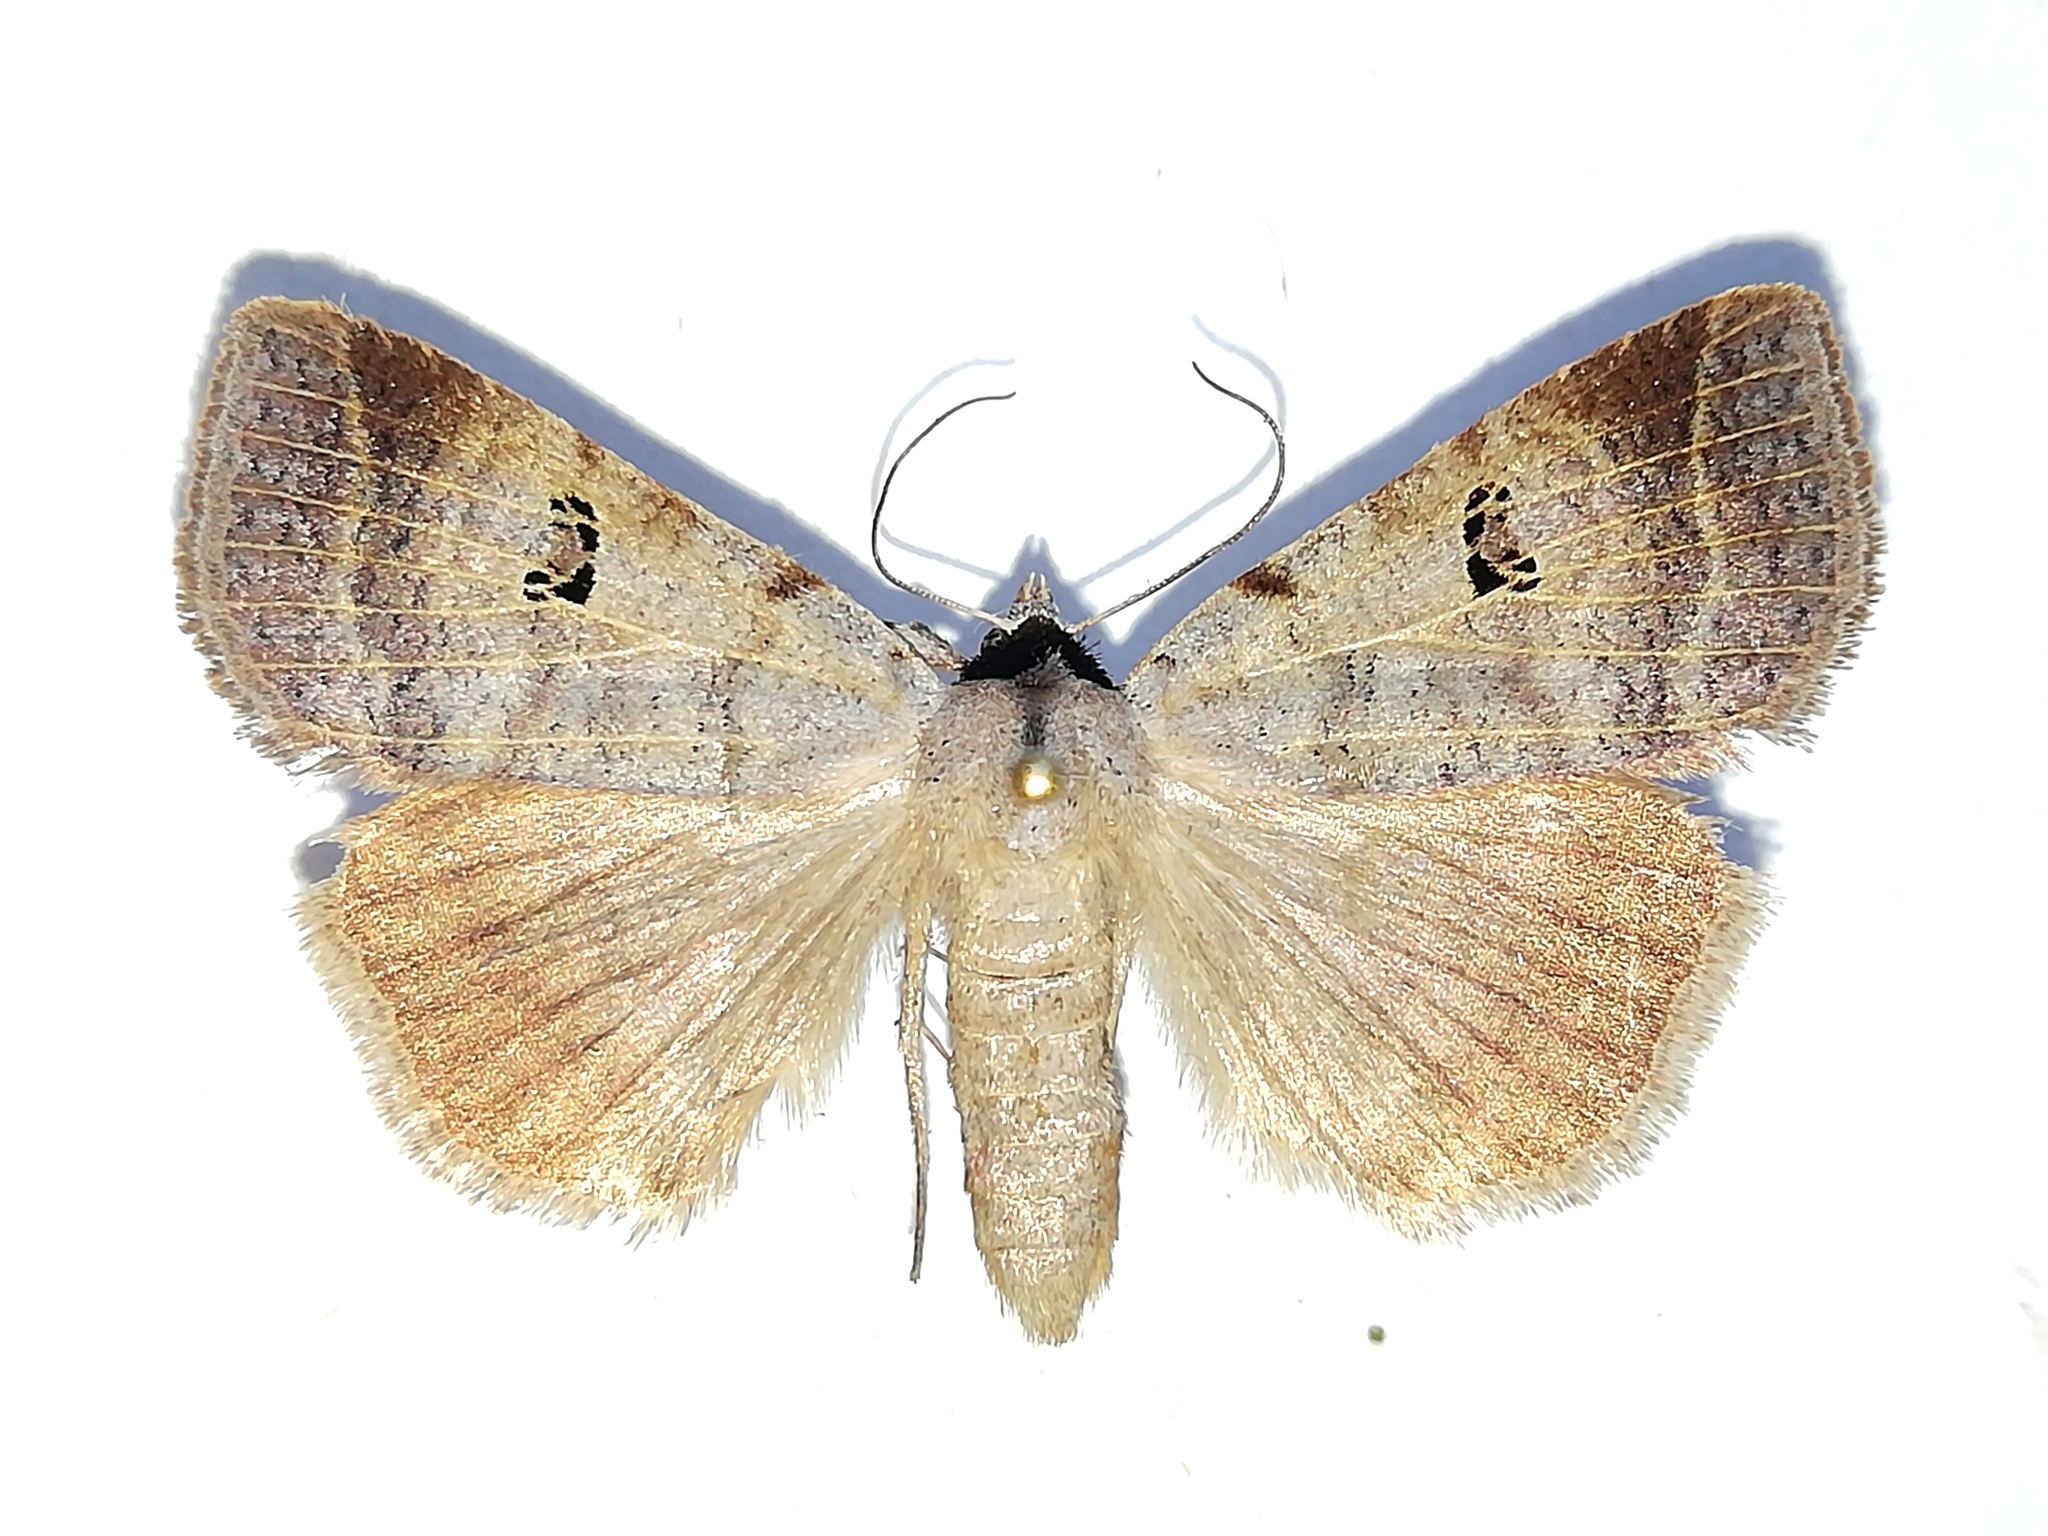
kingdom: Animalia
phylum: Arthropoda
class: Insecta
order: Lepidoptera
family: Erebidae
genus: Lygephila
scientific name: Lygephila viciae
